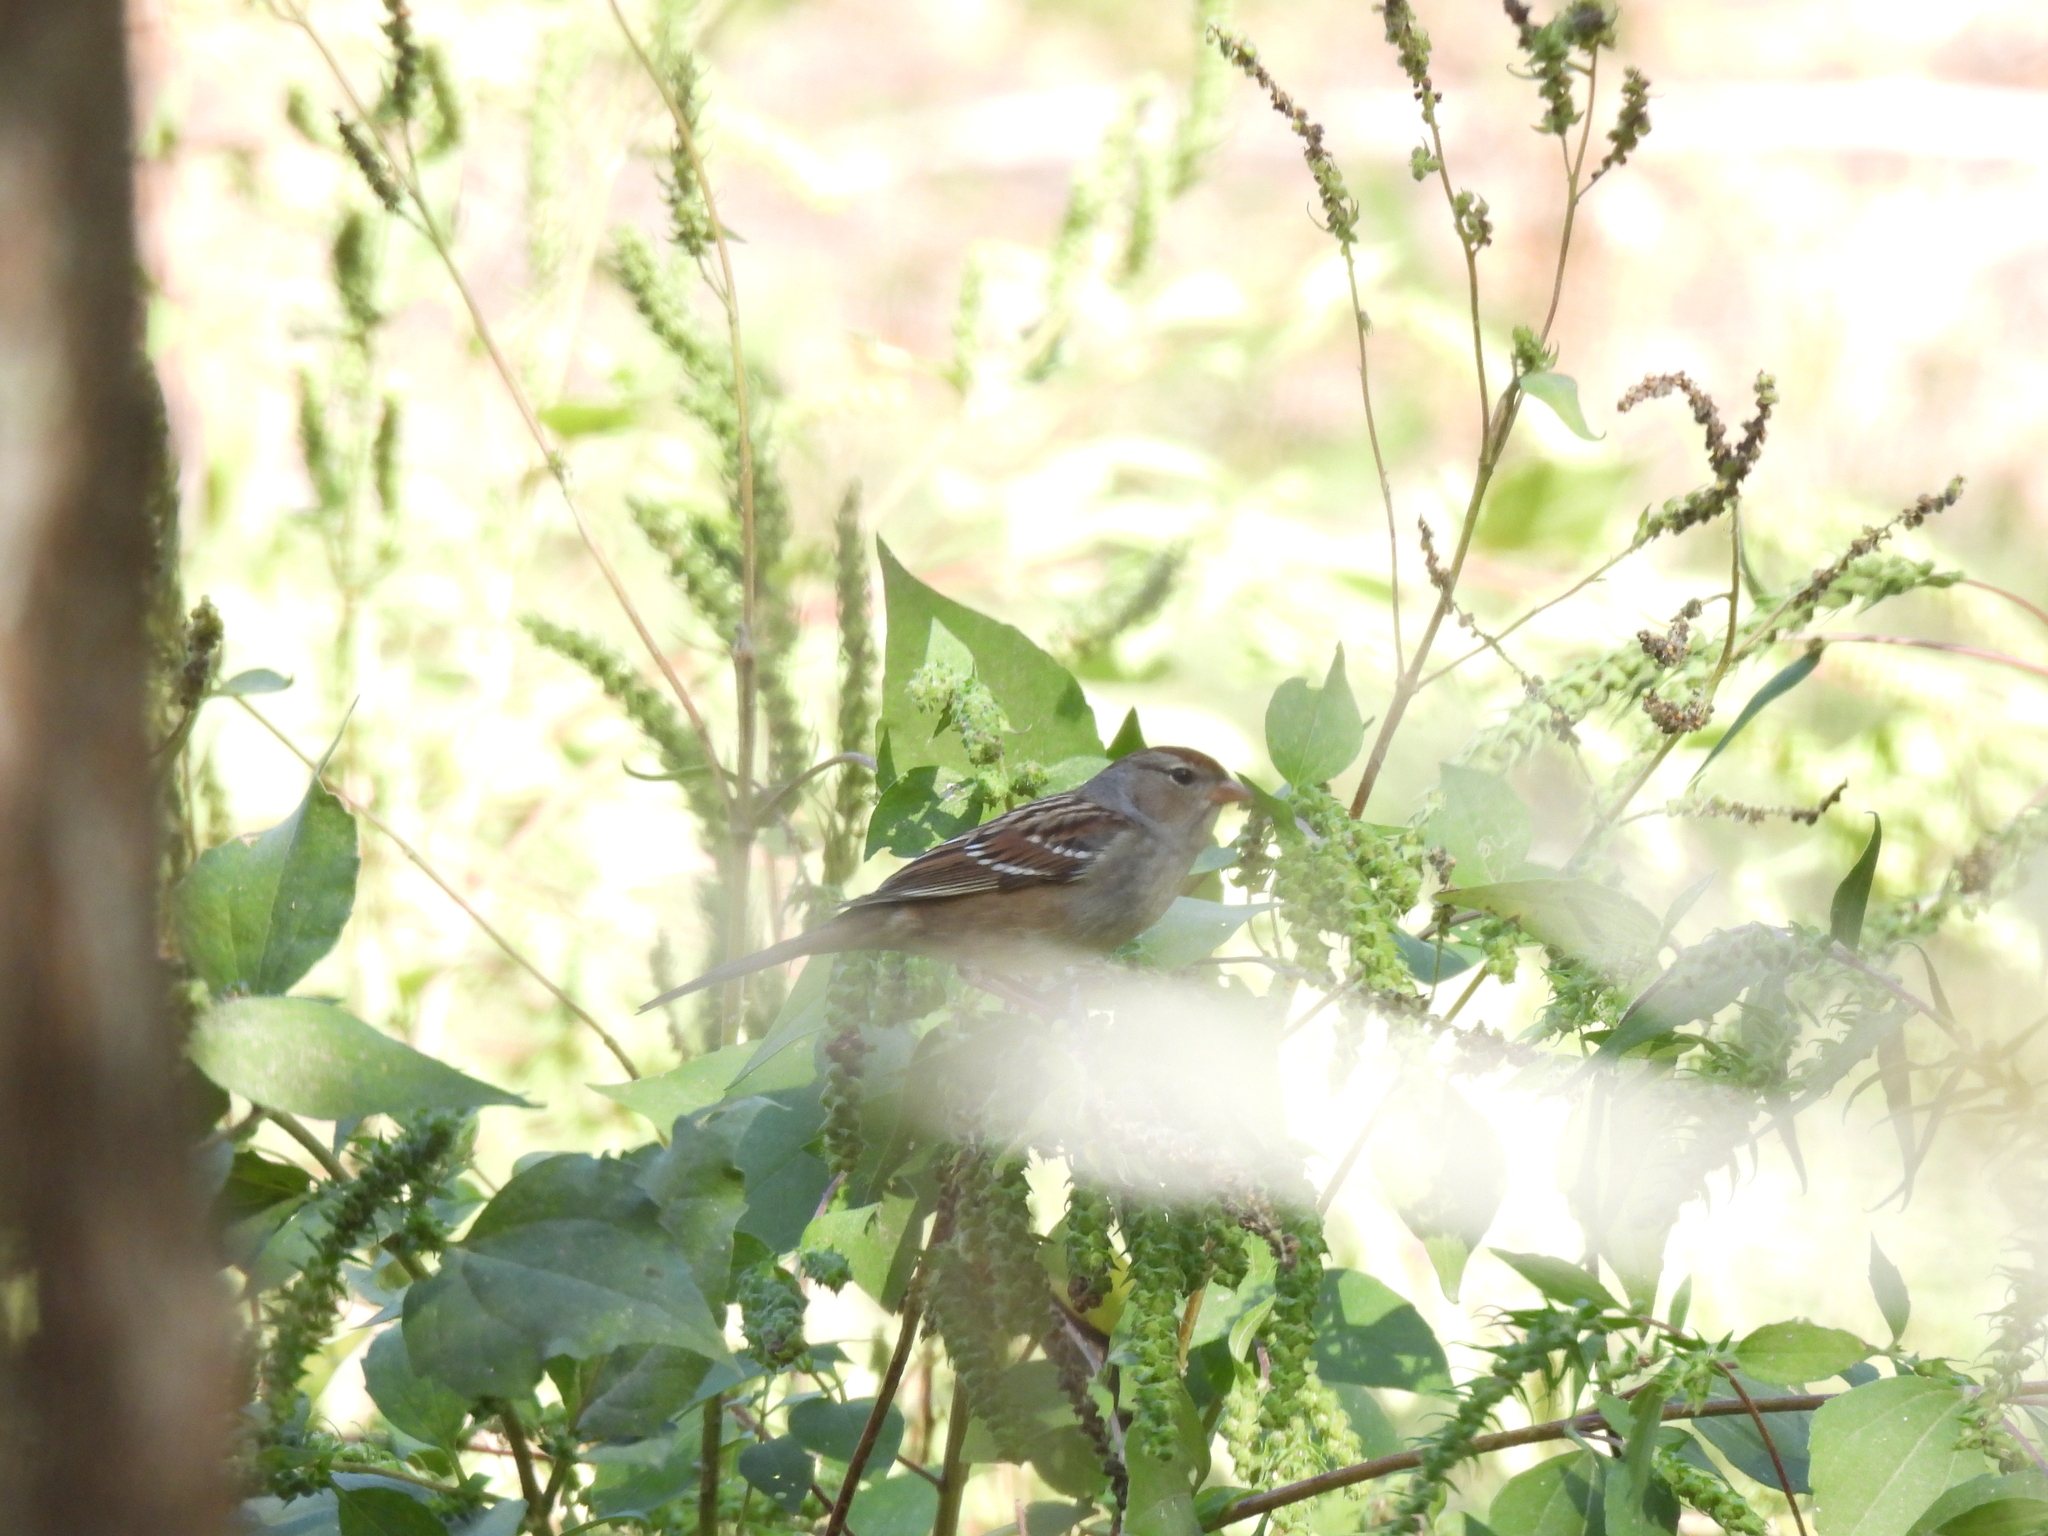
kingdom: Animalia
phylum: Chordata
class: Aves
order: Passeriformes
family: Passerellidae
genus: Zonotrichia
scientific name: Zonotrichia leucophrys
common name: White-crowned sparrow
